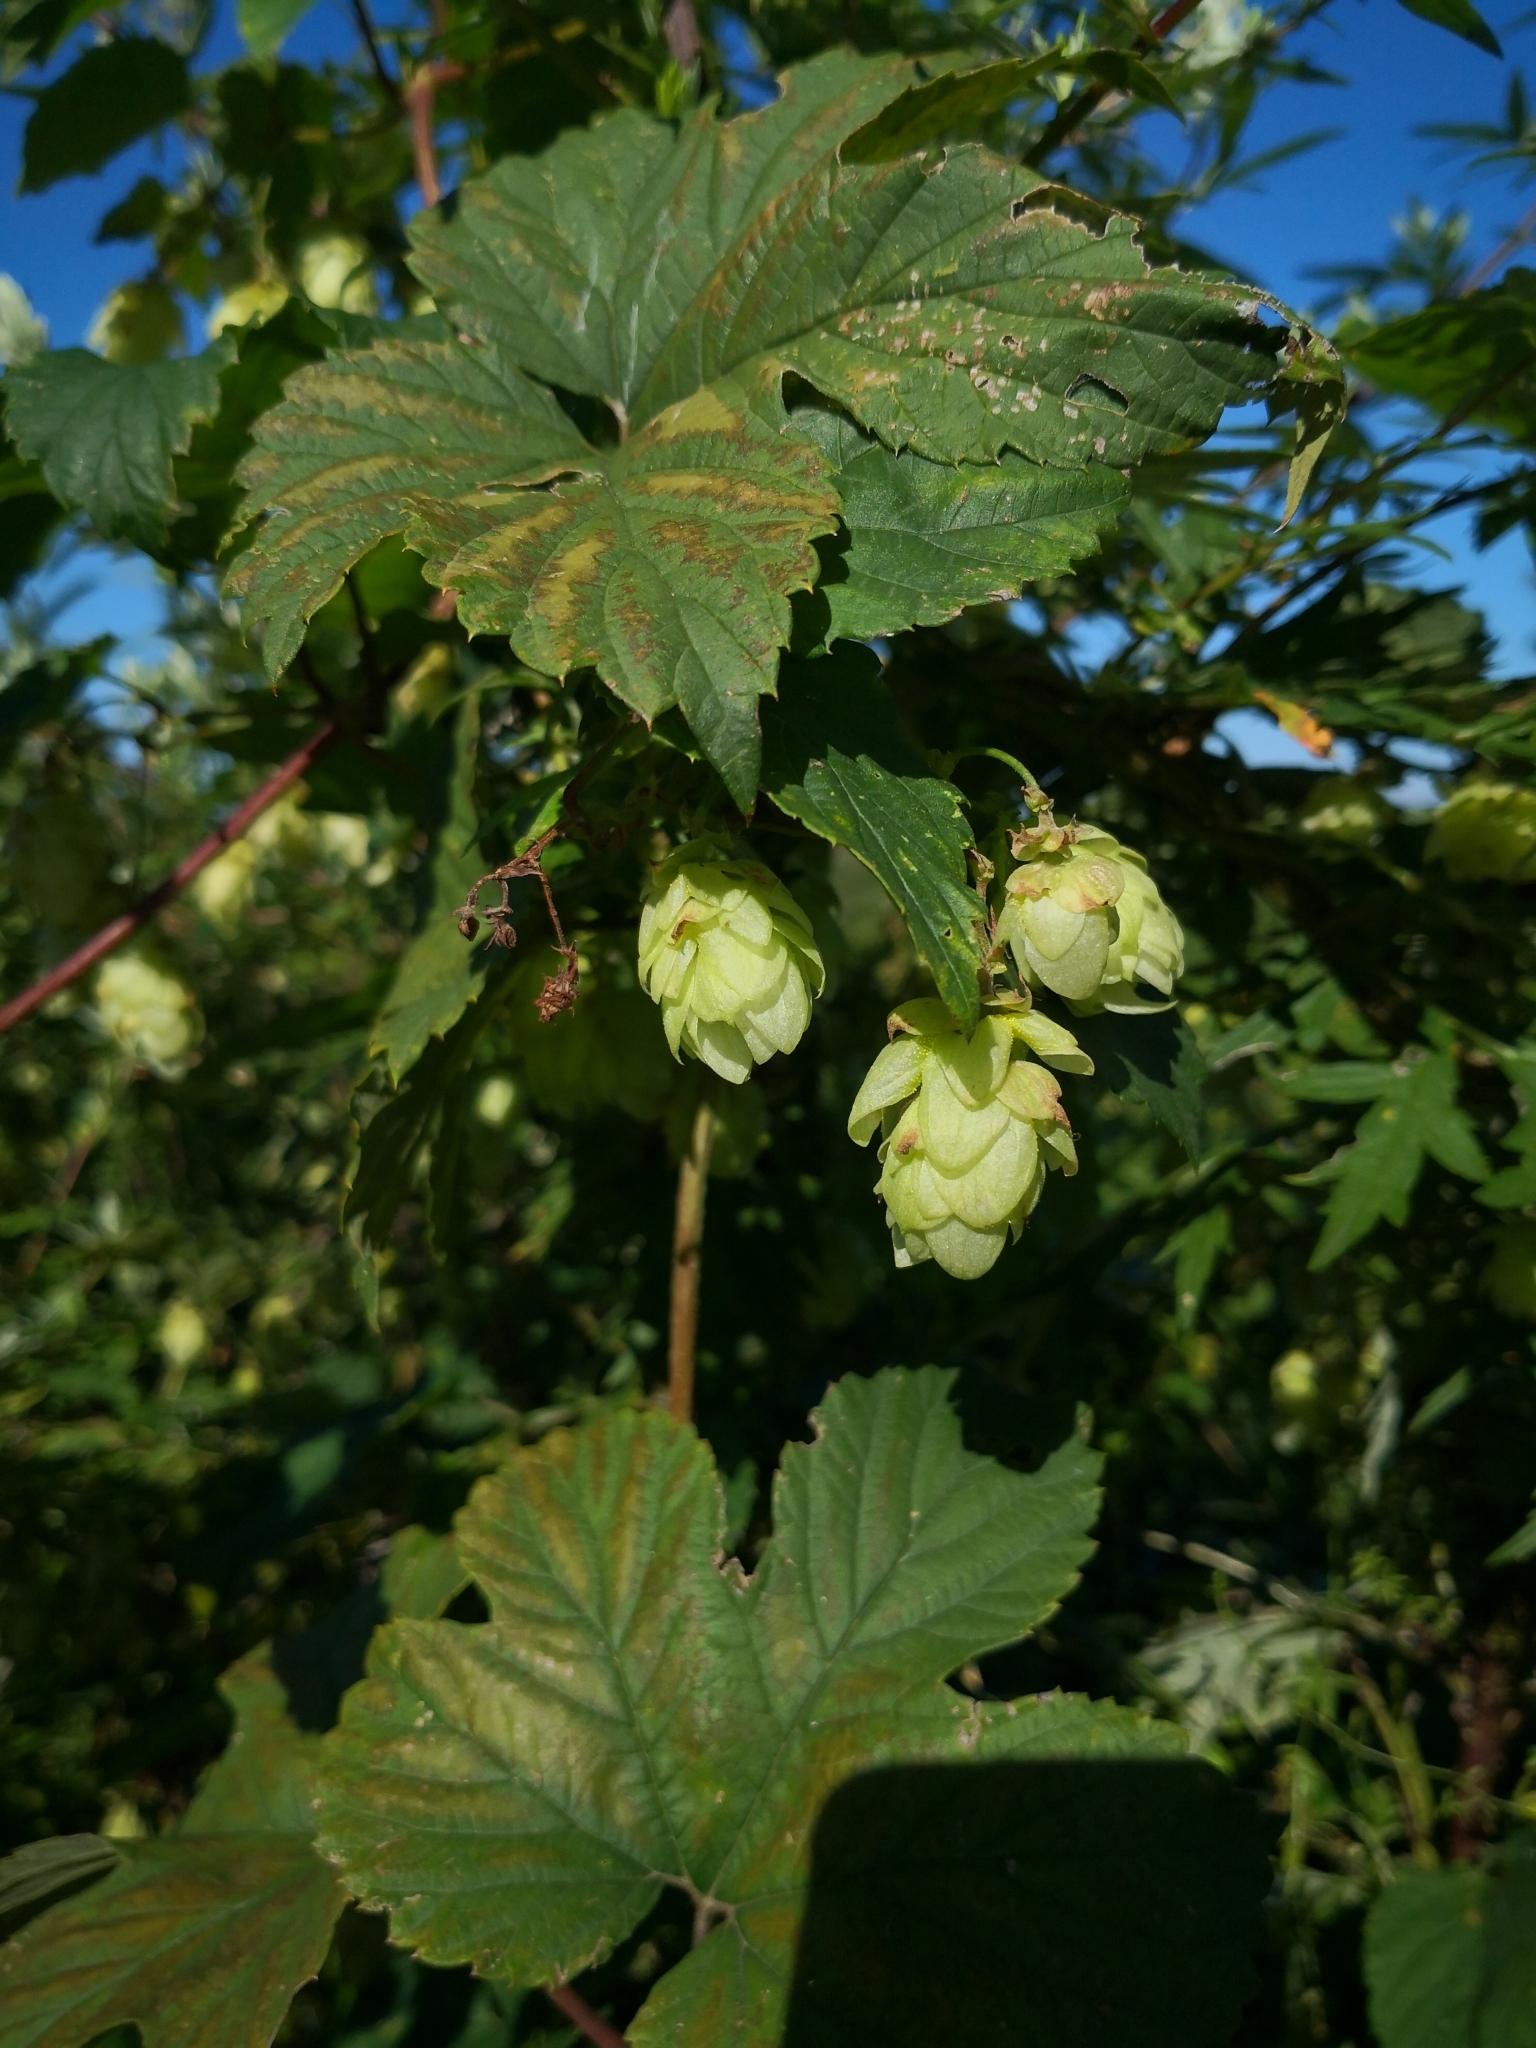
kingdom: Plantae
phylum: Tracheophyta
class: Magnoliopsida
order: Rosales
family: Cannabaceae
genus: Humulus
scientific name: Humulus lupulus
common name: Hop
